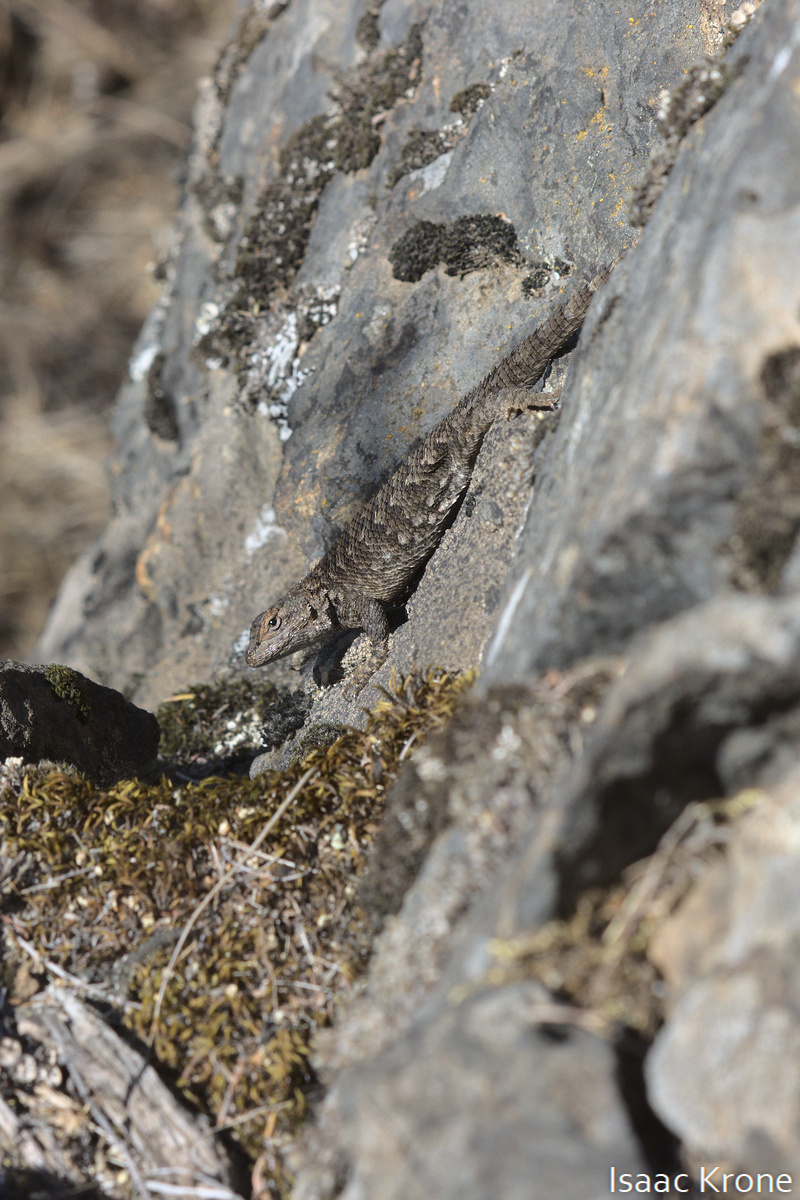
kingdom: Animalia
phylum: Chordata
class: Squamata
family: Phrynosomatidae
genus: Sceloporus
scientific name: Sceloporus occidentalis
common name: Western fence lizard
